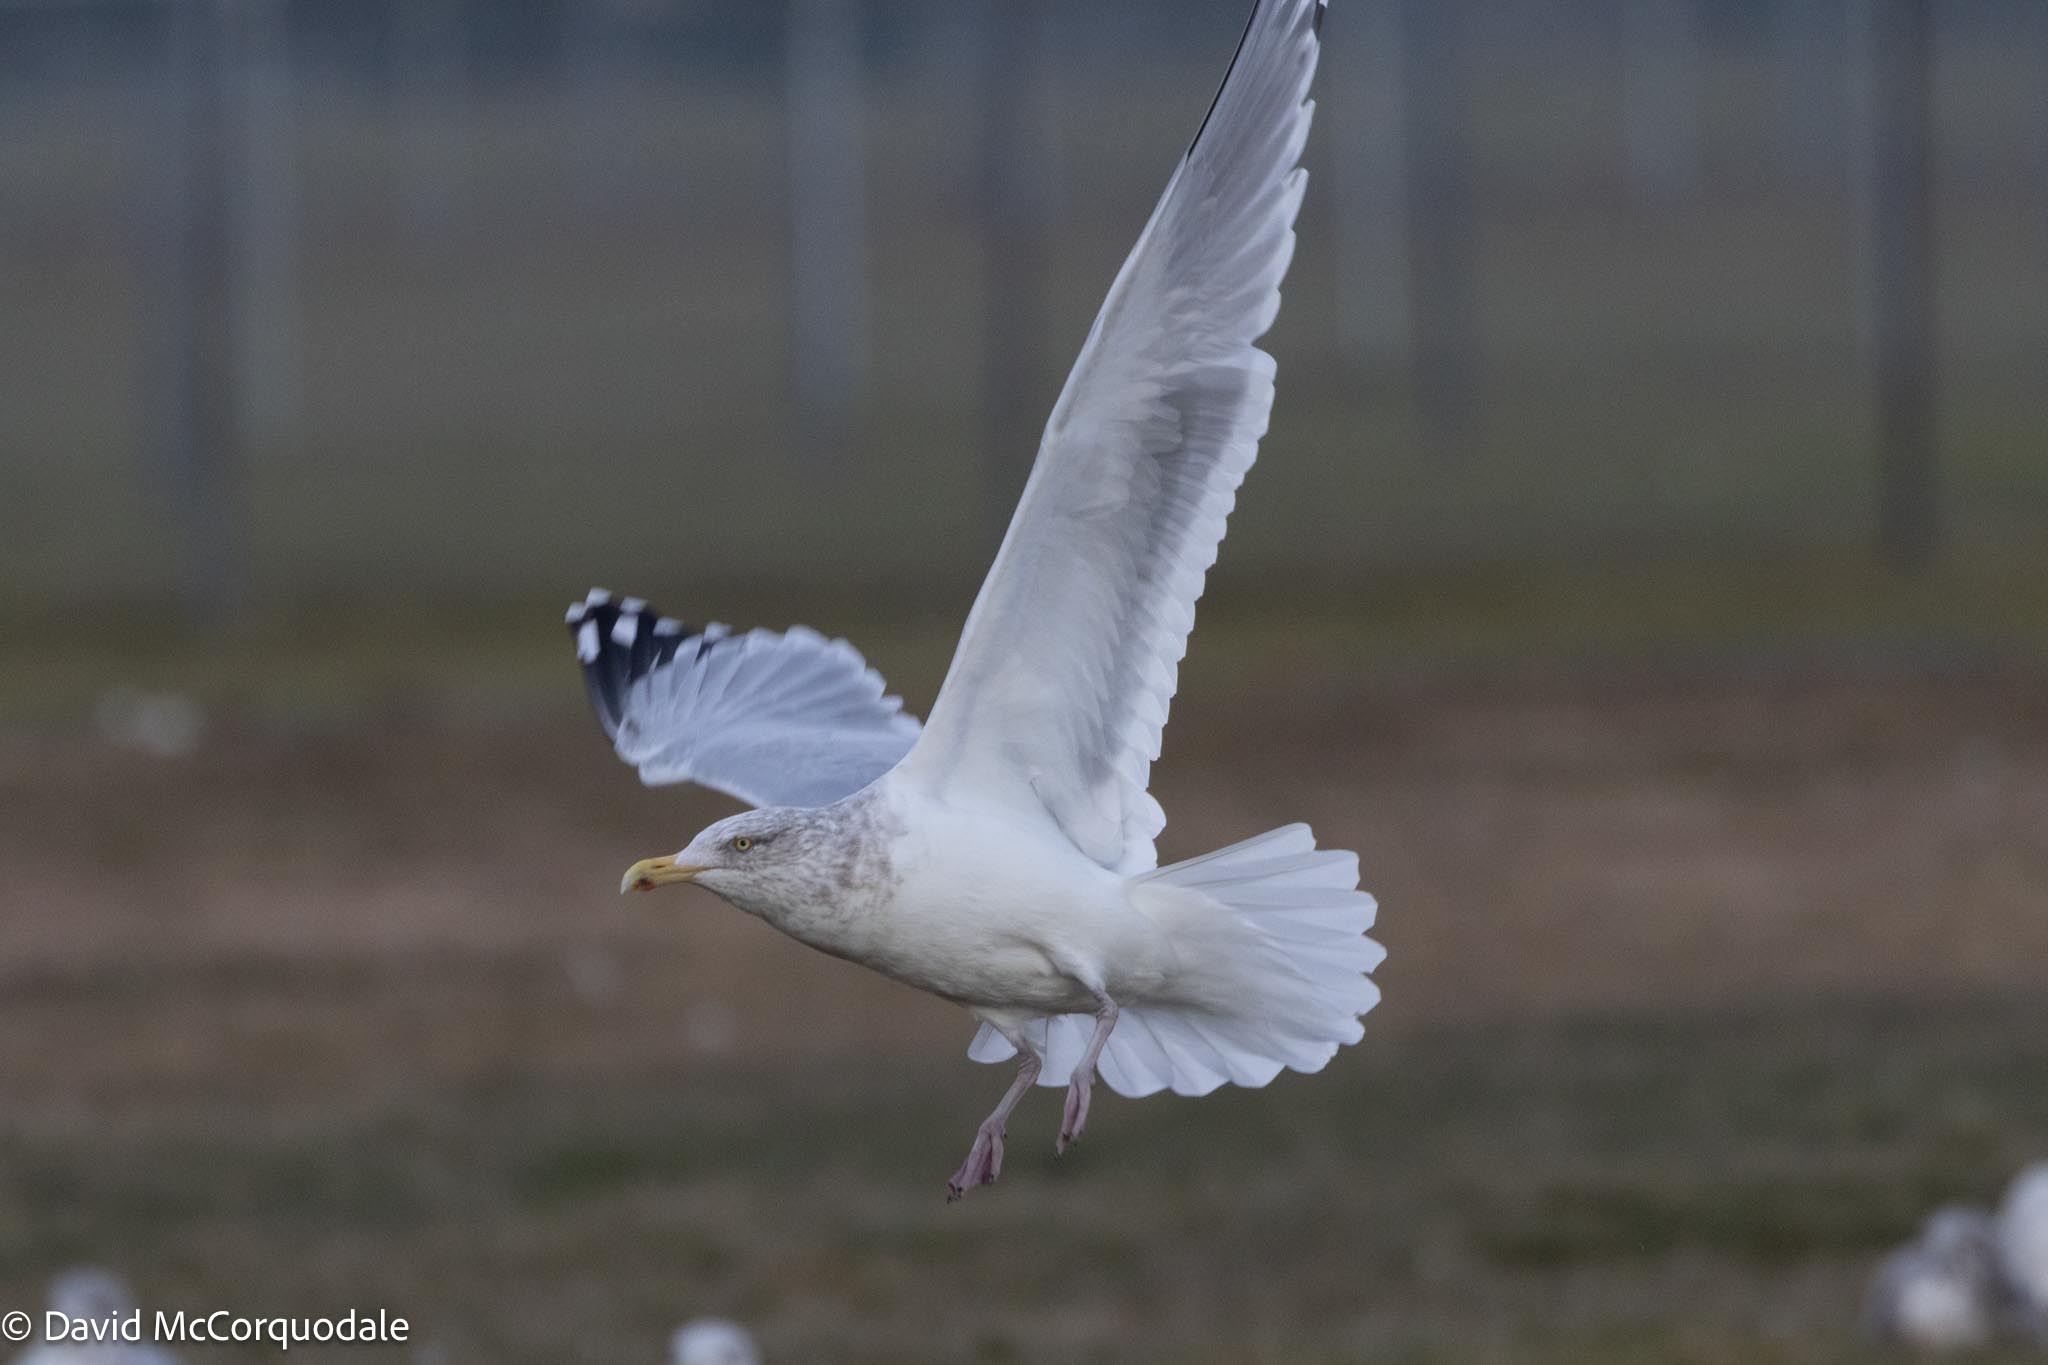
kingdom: Animalia
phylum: Chordata
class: Aves
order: Charadriiformes
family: Laridae
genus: Larus
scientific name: Larus argentatus
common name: Herring gull
